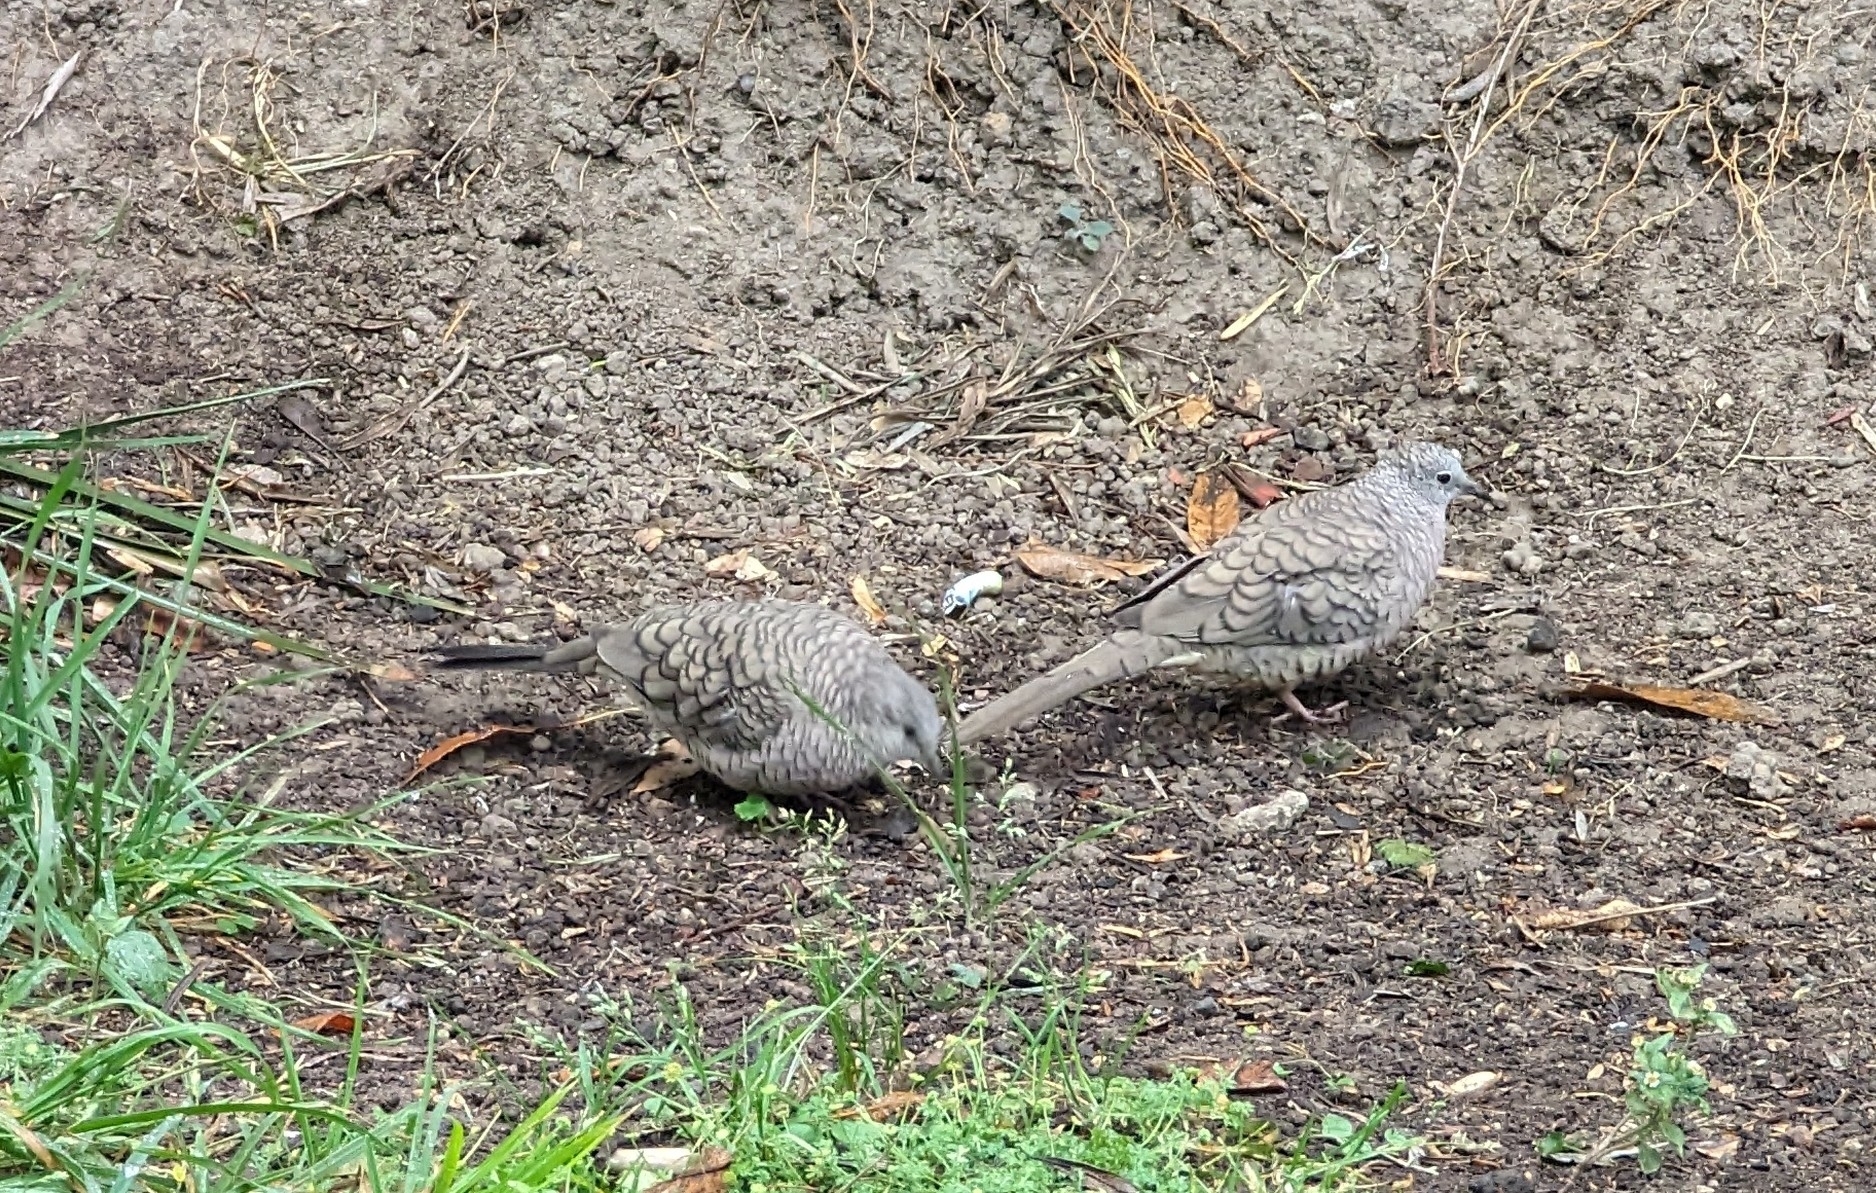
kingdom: Animalia
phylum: Chordata
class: Aves
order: Columbiformes
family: Columbidae
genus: Columbina
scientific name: Columbina inca
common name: Inca dove
